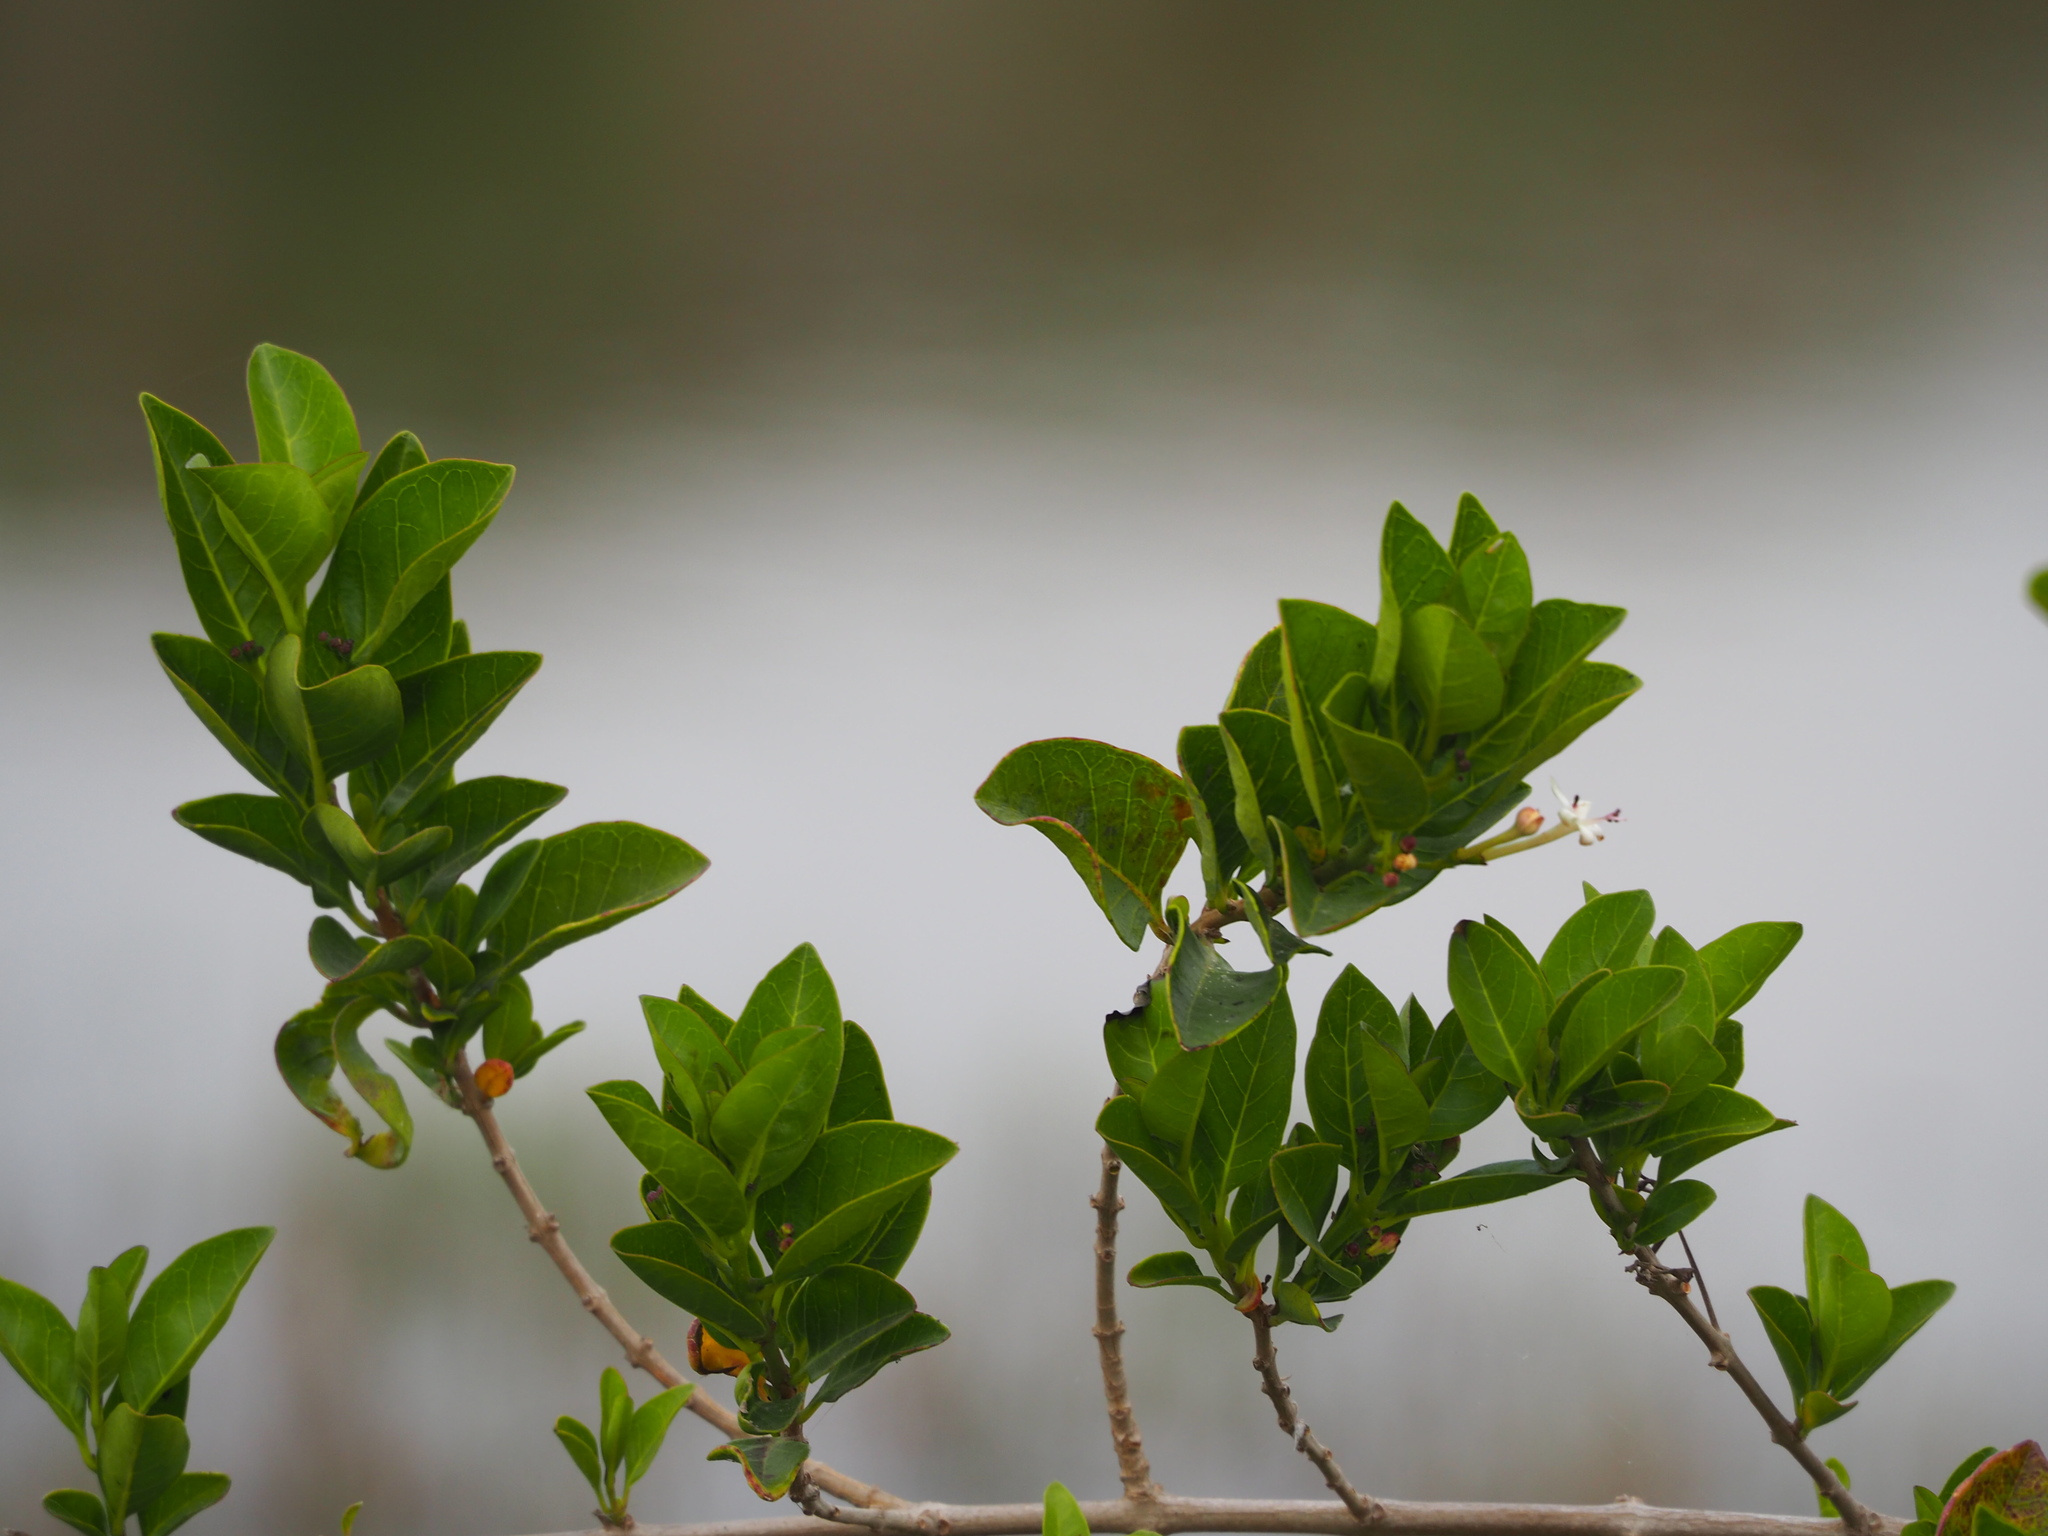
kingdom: Plantae
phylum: Tracheophyta
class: Magnoliopsida
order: Lamiales
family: Lamiaceae
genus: Volkameria
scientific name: Volkameria inermis
